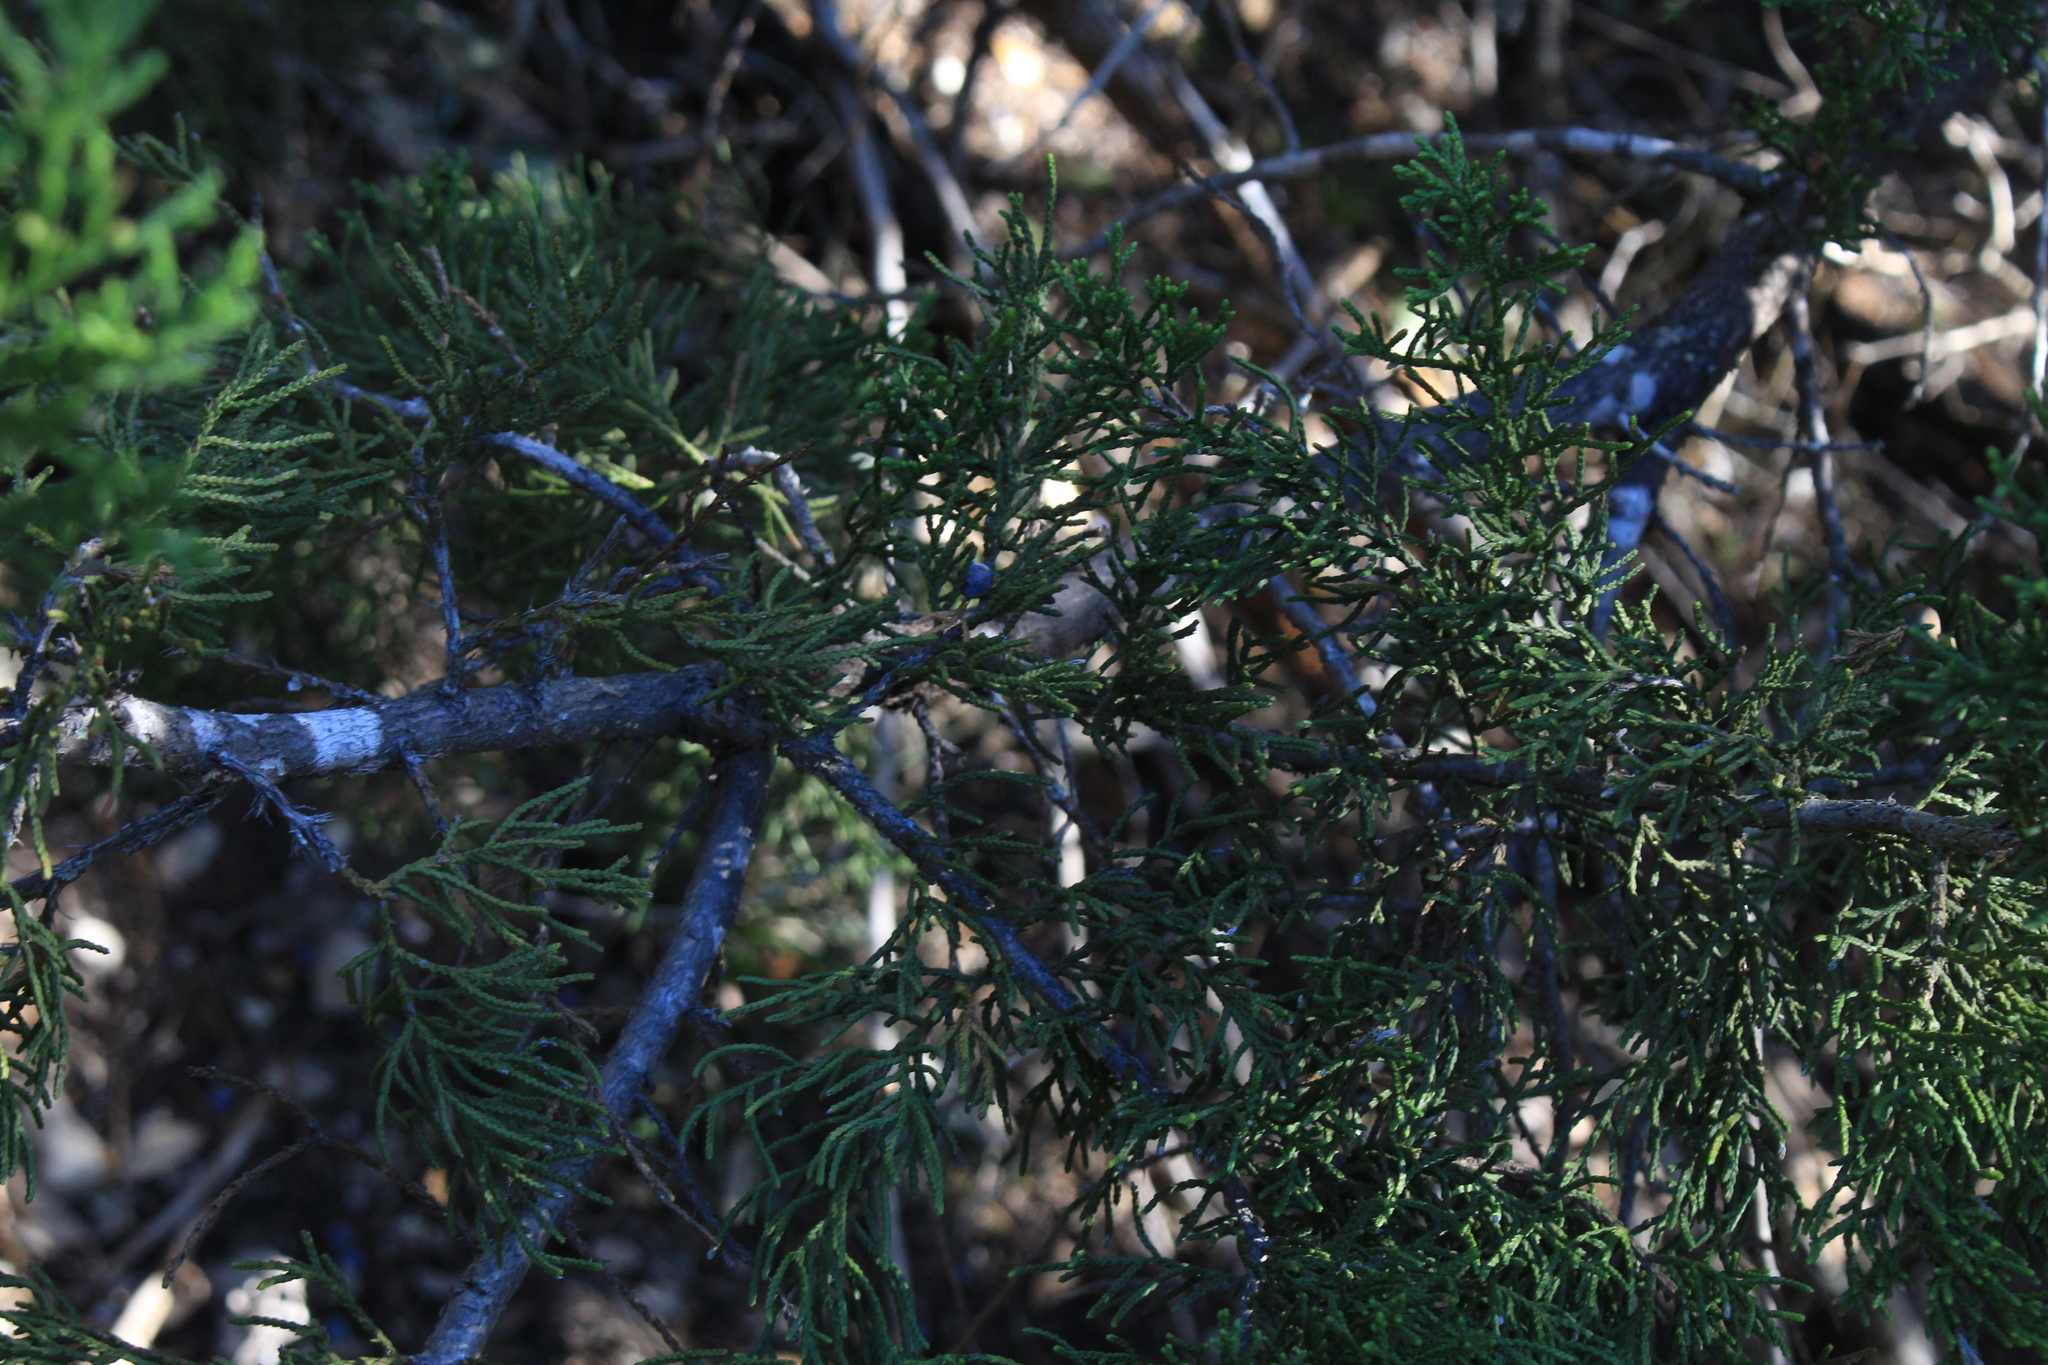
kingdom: Plantae
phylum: Tracheophyta
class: Pinopsida
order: Pinales
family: Cupressaceae
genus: Juniperus
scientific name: Juniperus ashei
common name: Mexican juniper
